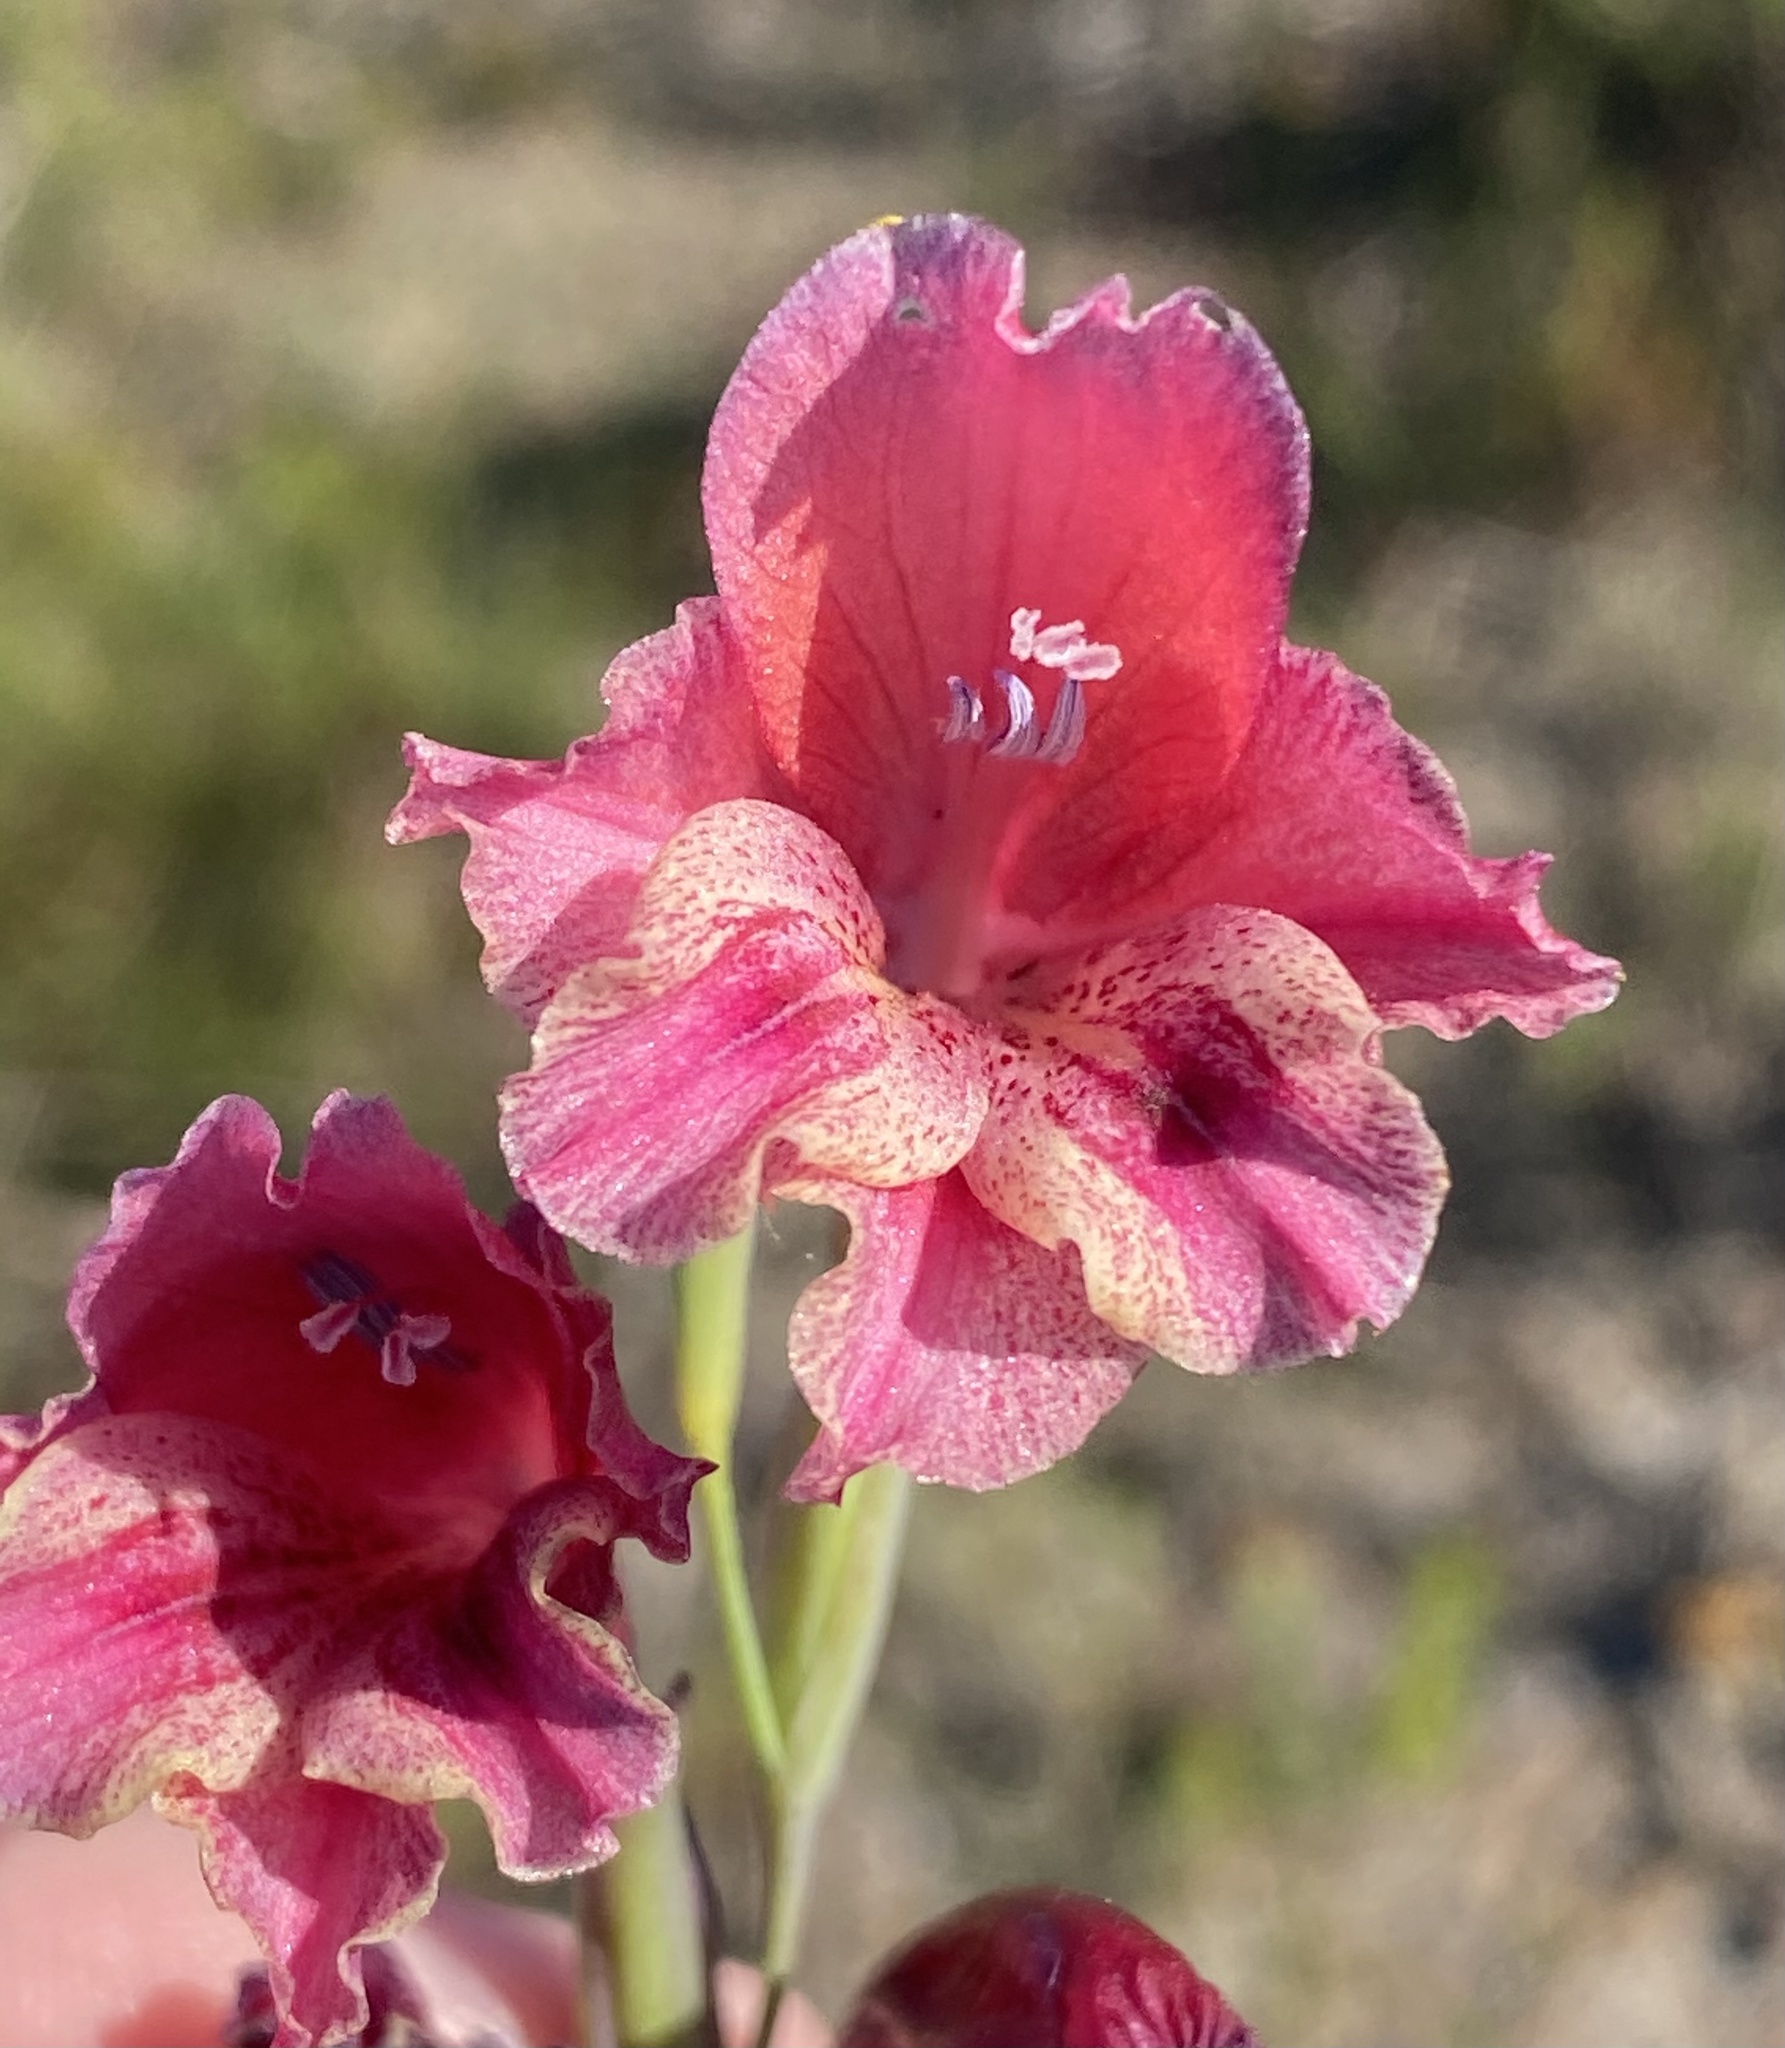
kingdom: Plantae
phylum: Tracheophyta
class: Liliopsida
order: Asparagales
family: Iridaceae
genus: Gladiolus
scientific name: Gladiolus guthriei
